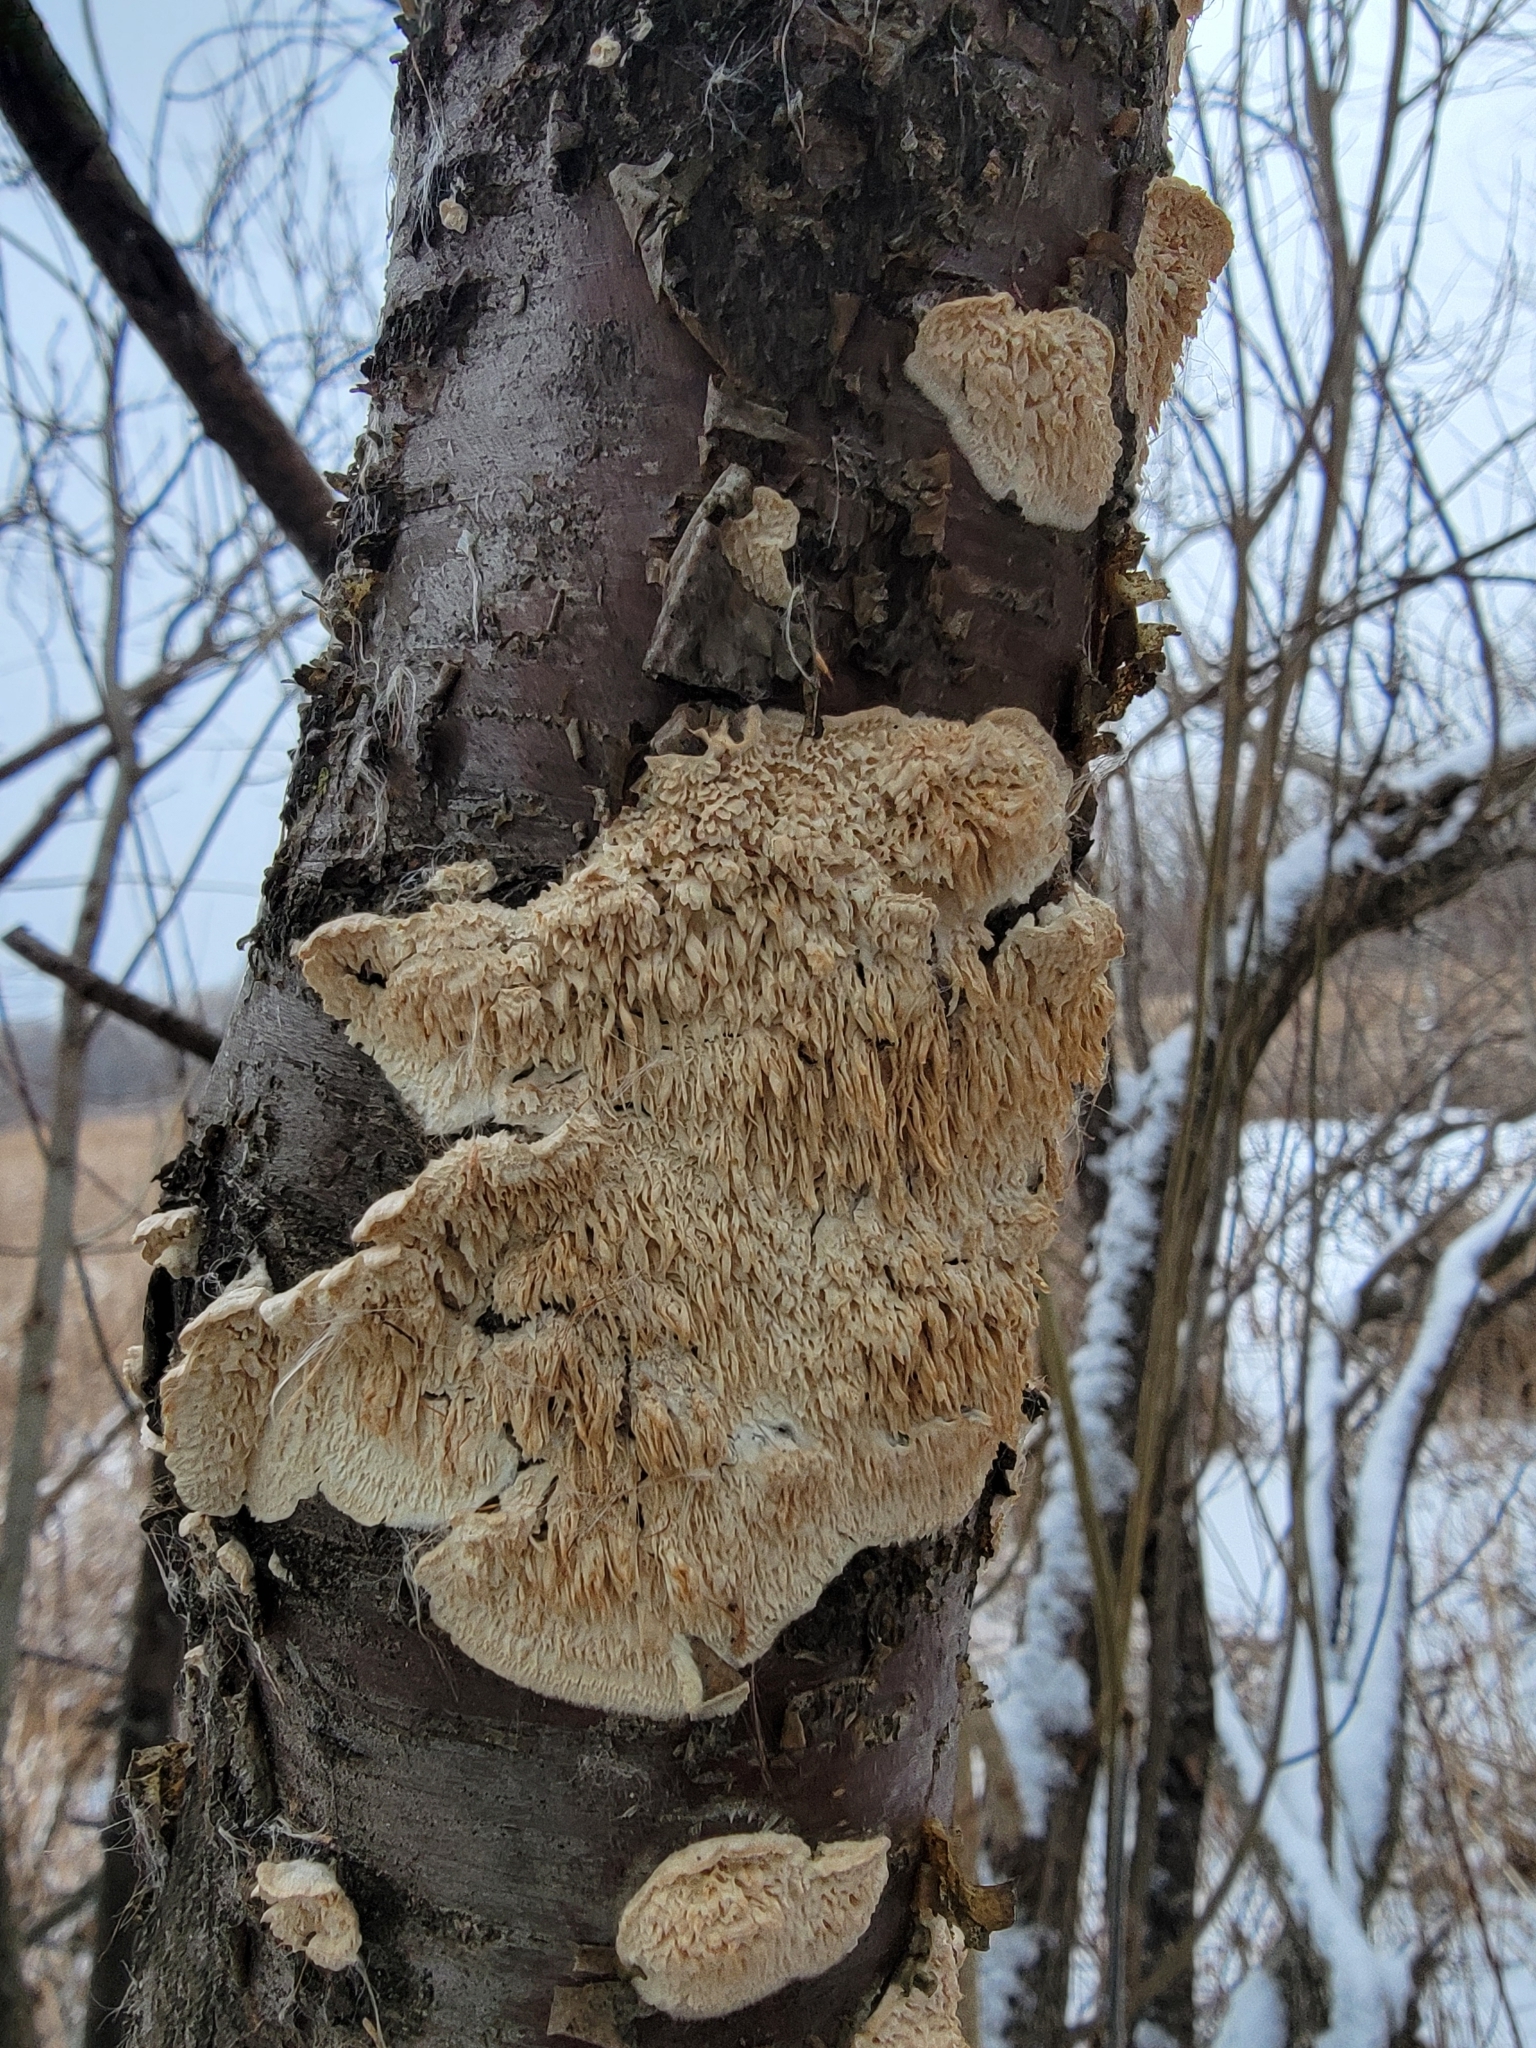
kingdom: Fungi
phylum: Basidiomycota
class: Agaricomycetes
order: Polyporales
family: Irpicaceae
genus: Irpex
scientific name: Irpex lacteus
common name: Milk-white toothed polypore
